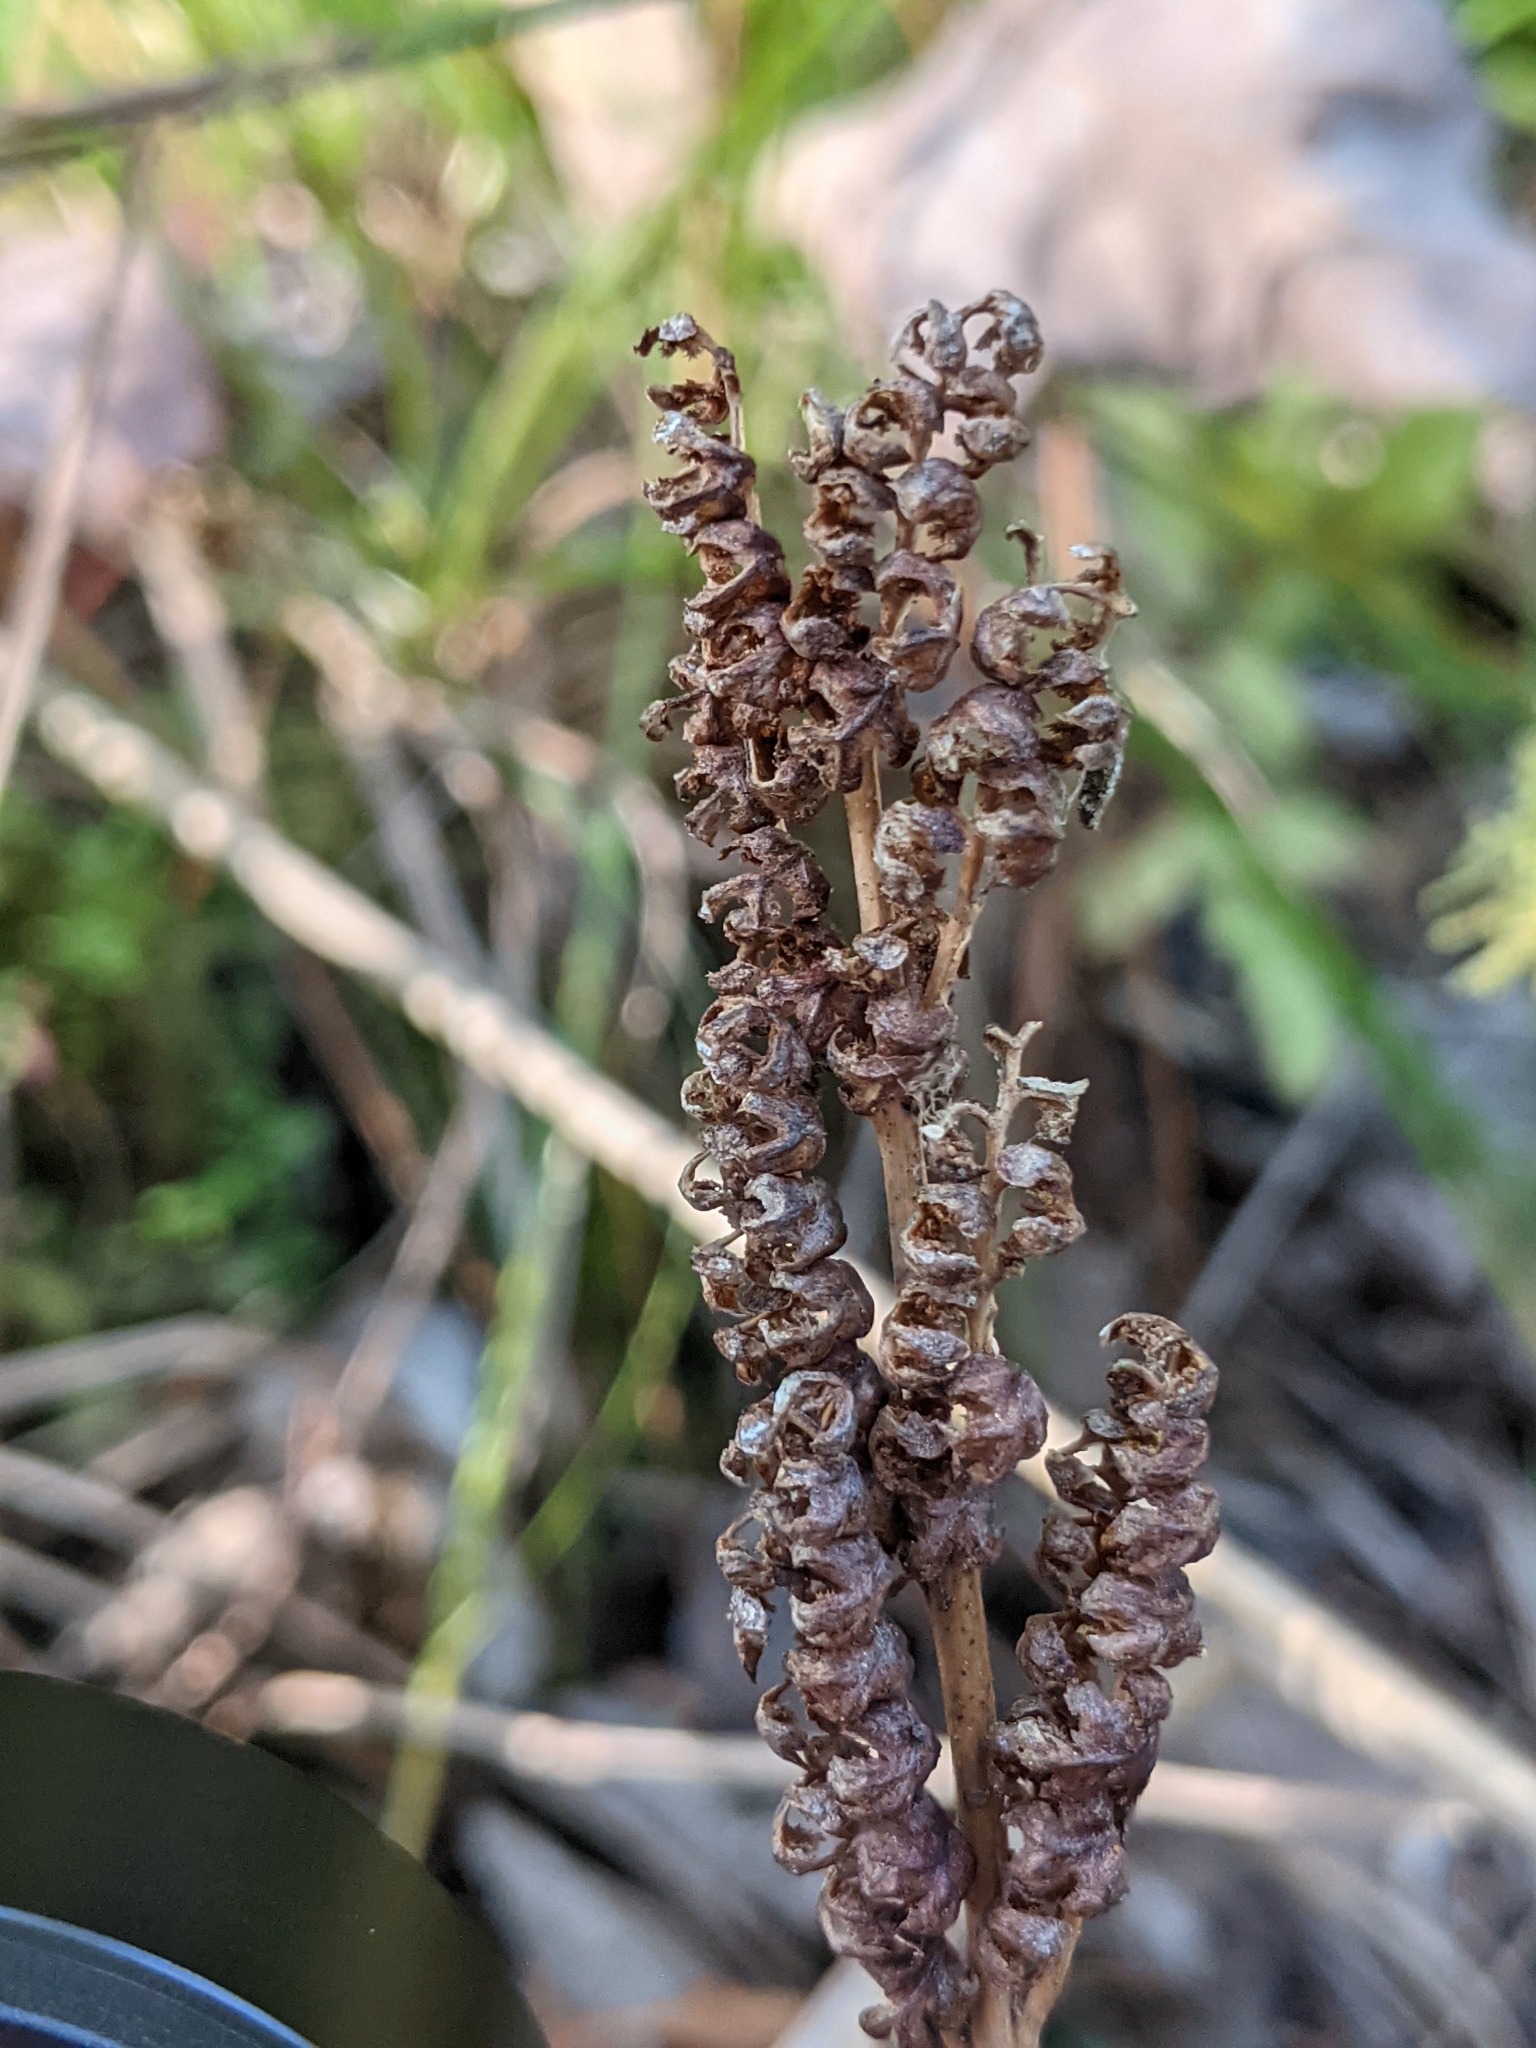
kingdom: Plantae
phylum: Tracheophyta
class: Polypodiopsida
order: Polypodiales
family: Onocleaceae
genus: Onoclea
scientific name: Onoclea sensibilis
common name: Sensitive fern
